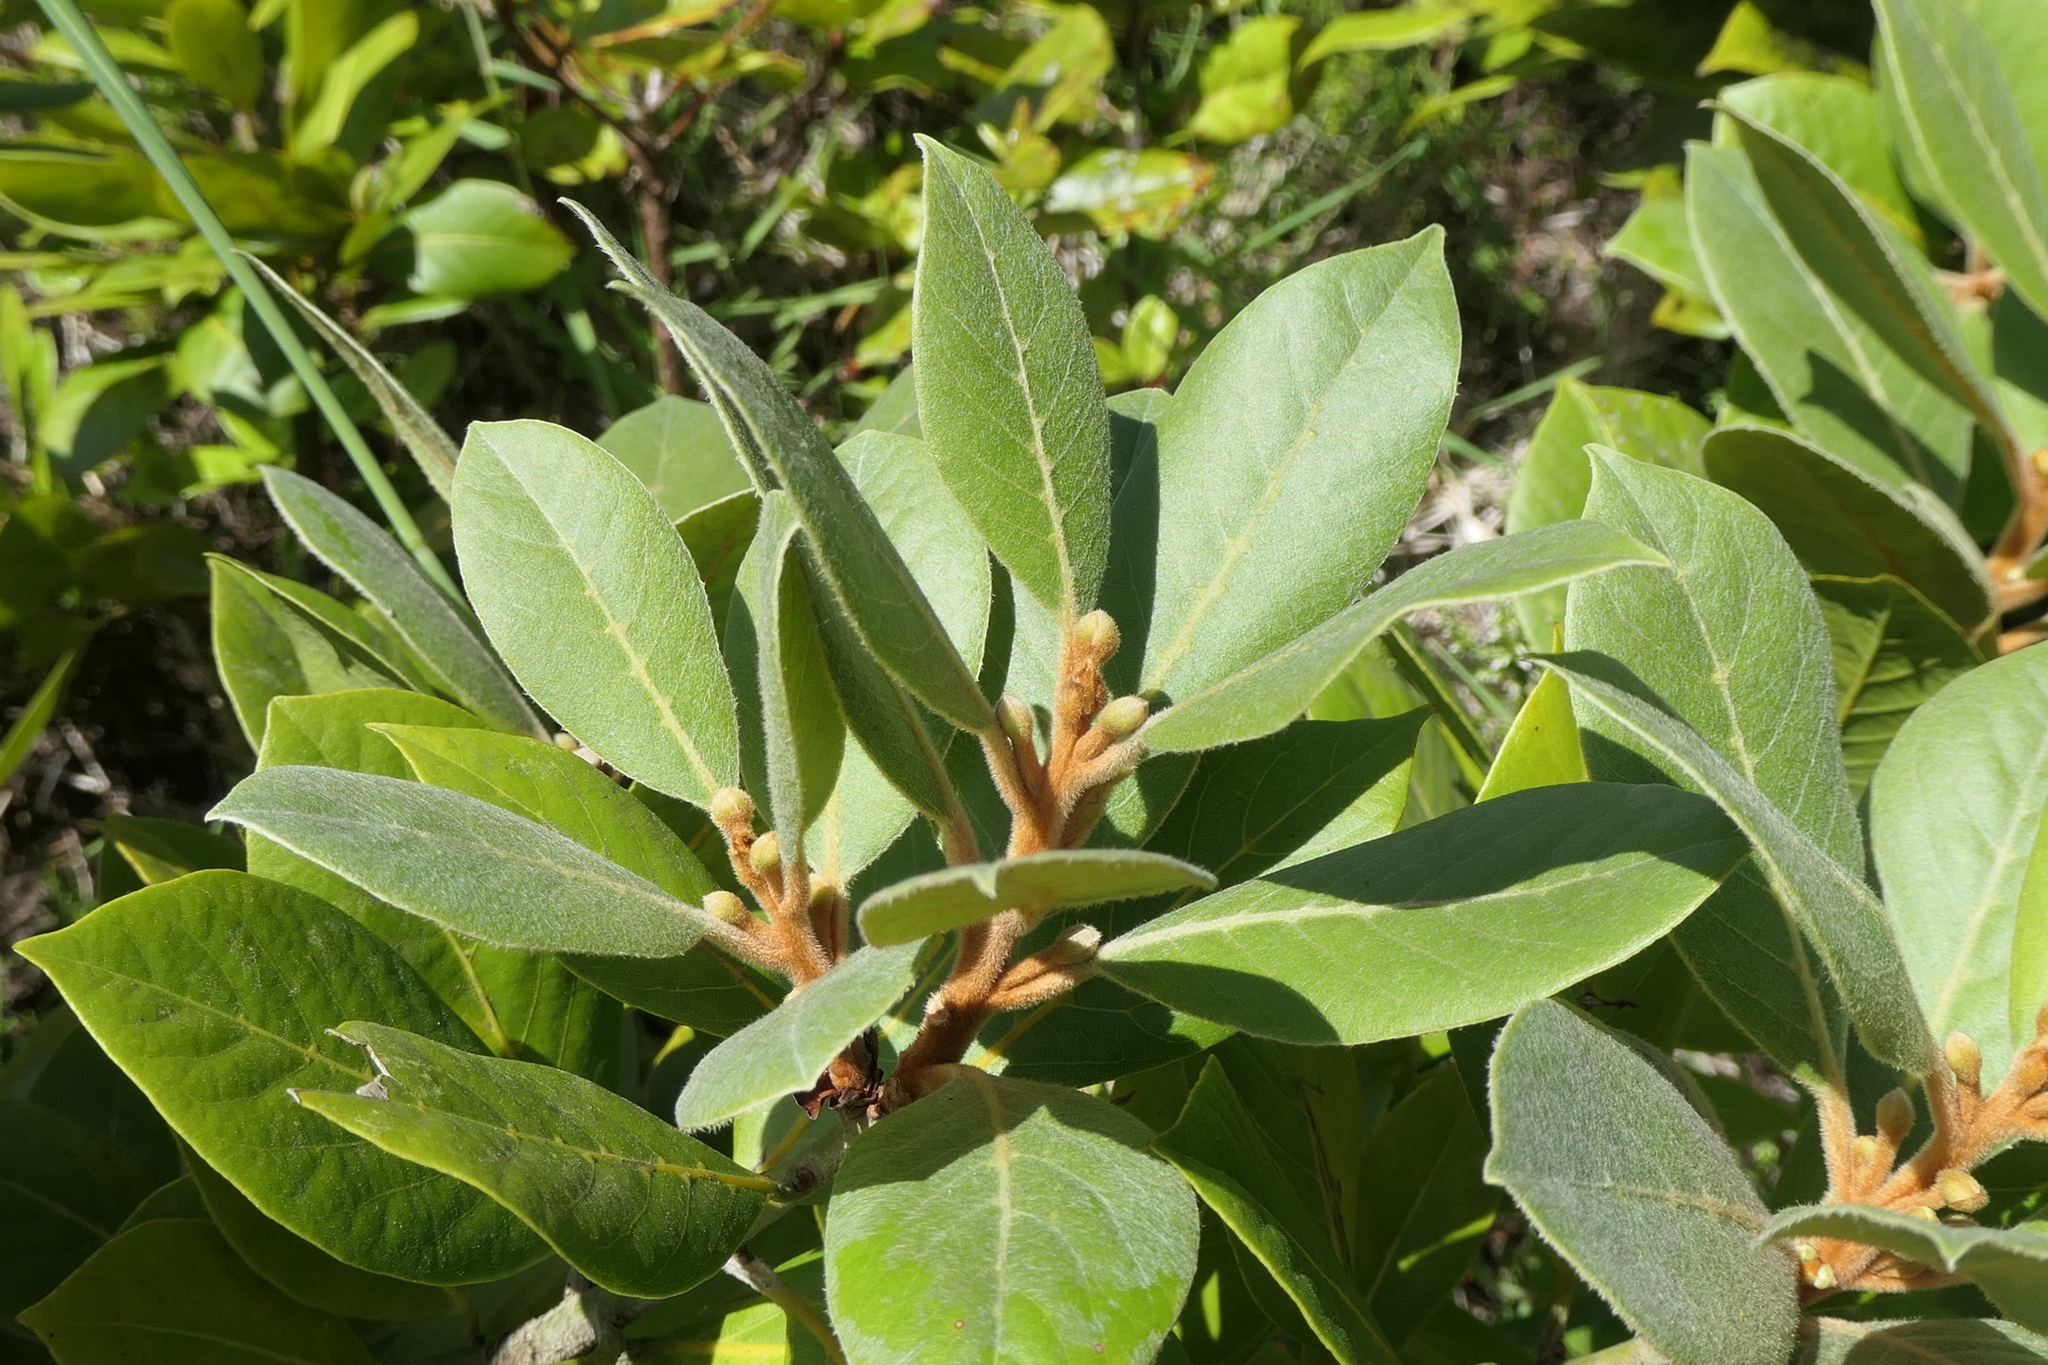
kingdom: Plantae
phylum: Tracheophyta
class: Magnoliopsida
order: Laurales
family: Lauraceae
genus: Laurus
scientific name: Laurus azorica
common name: Macaronesian laurel
